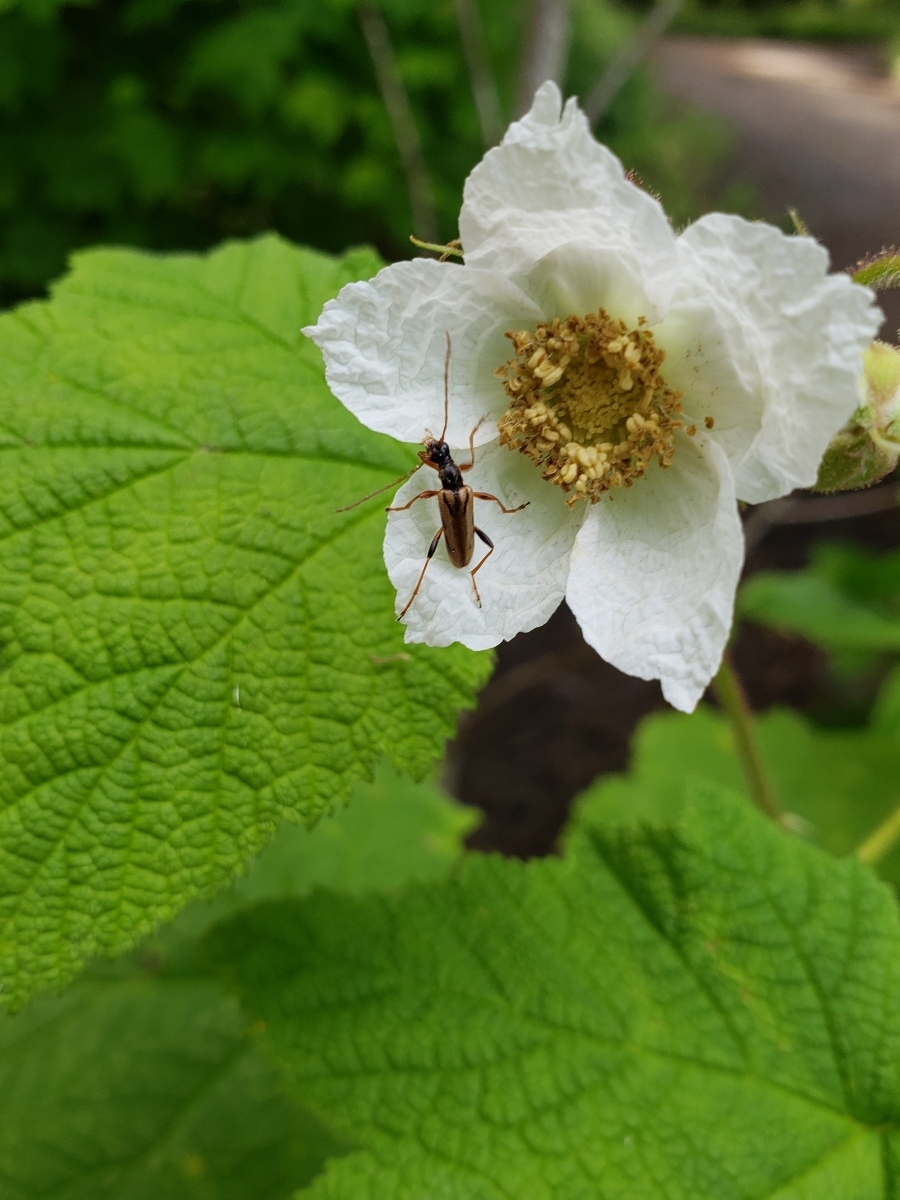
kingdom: Animalia
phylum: Arthropoda
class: Insecta
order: Coleoptera
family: Cerambycidae
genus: Pidonia
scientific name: Pidonia scripta
